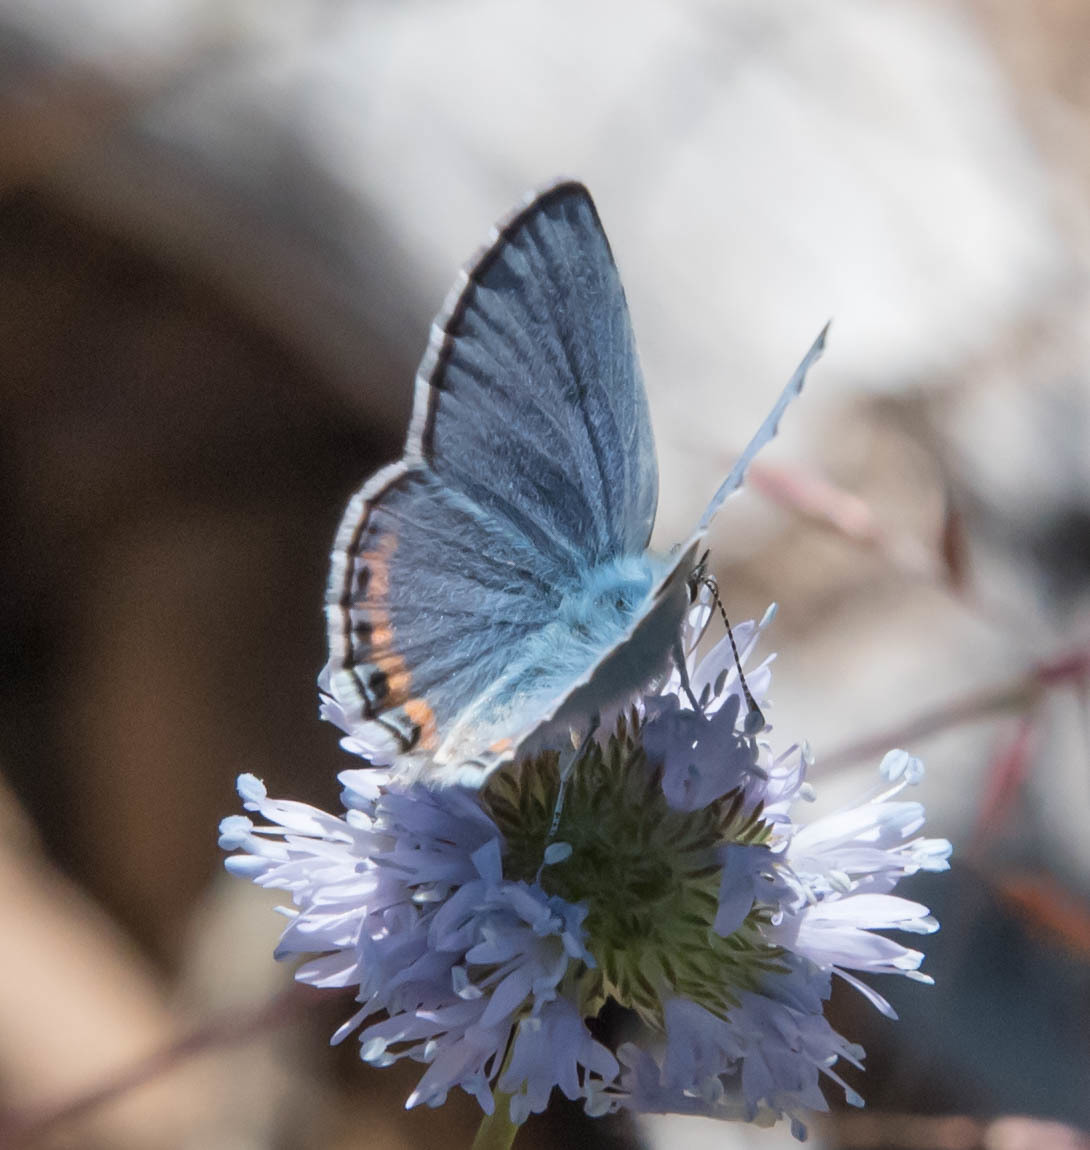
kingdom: Animalia
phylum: Arthropoda
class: Insecta
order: Lepidoptera
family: Lycaenidae
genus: Icaricia
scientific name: Icaricia acmon
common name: Acmon blue
